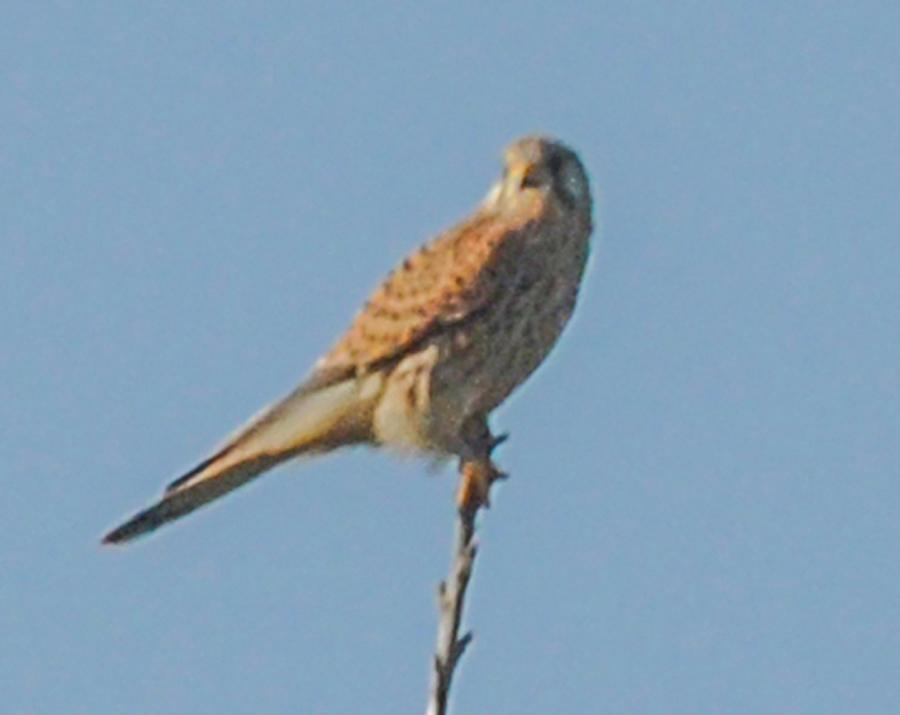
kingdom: Animalia
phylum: Chordata
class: Aves
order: Falconiformes
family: Falconidae
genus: Falco
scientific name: Falco tinnunculus
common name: Common kestrel
